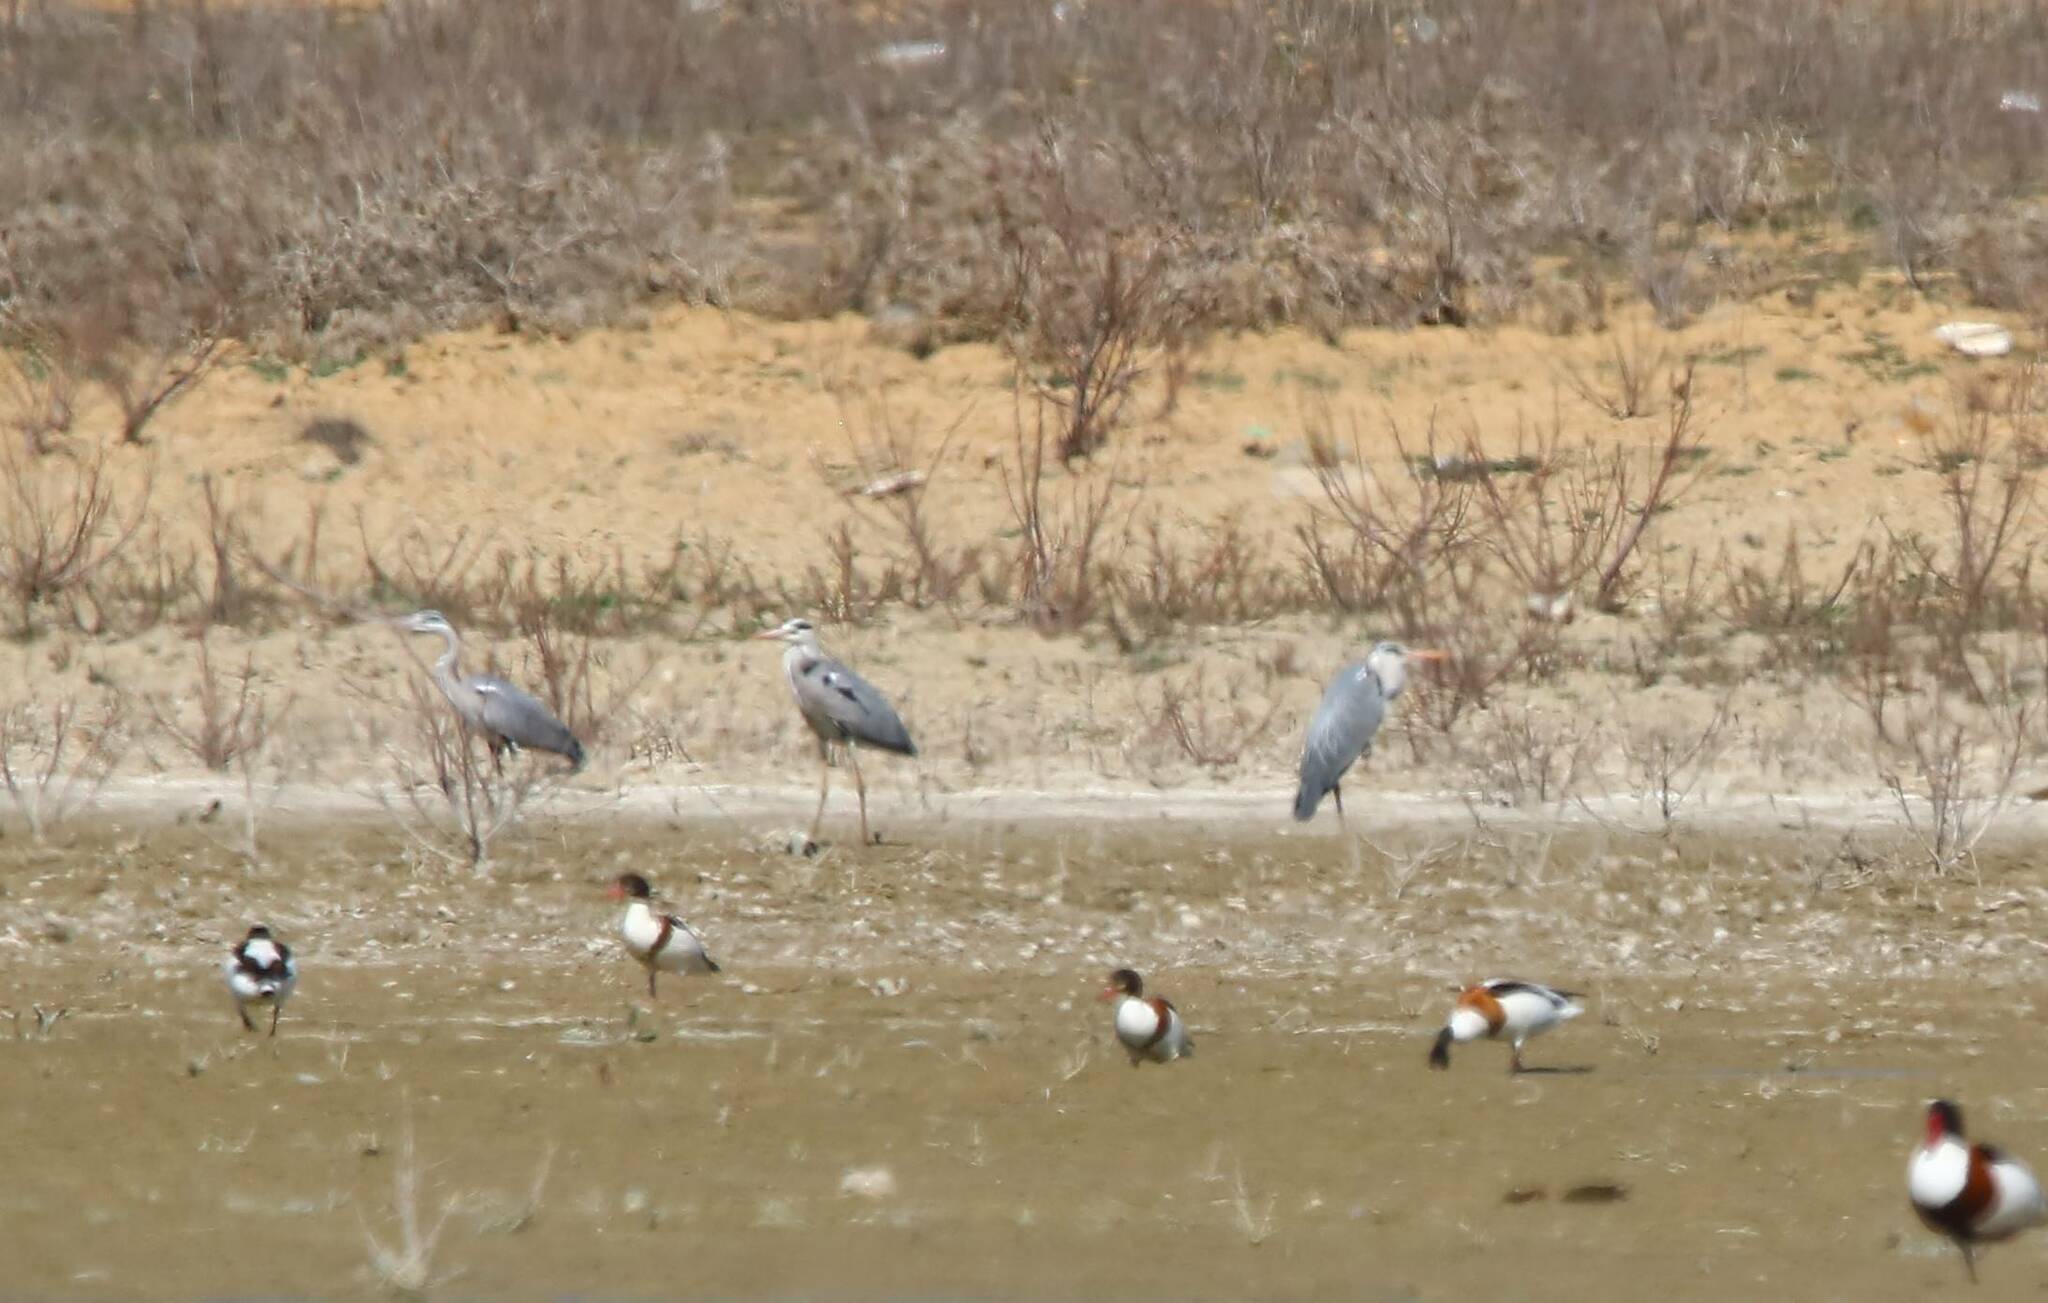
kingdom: Animalia
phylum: Chordata
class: Aves
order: Pelecaniformes
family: Ardeidae
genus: Ardea
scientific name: Ardea cinerea
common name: Grey heron
